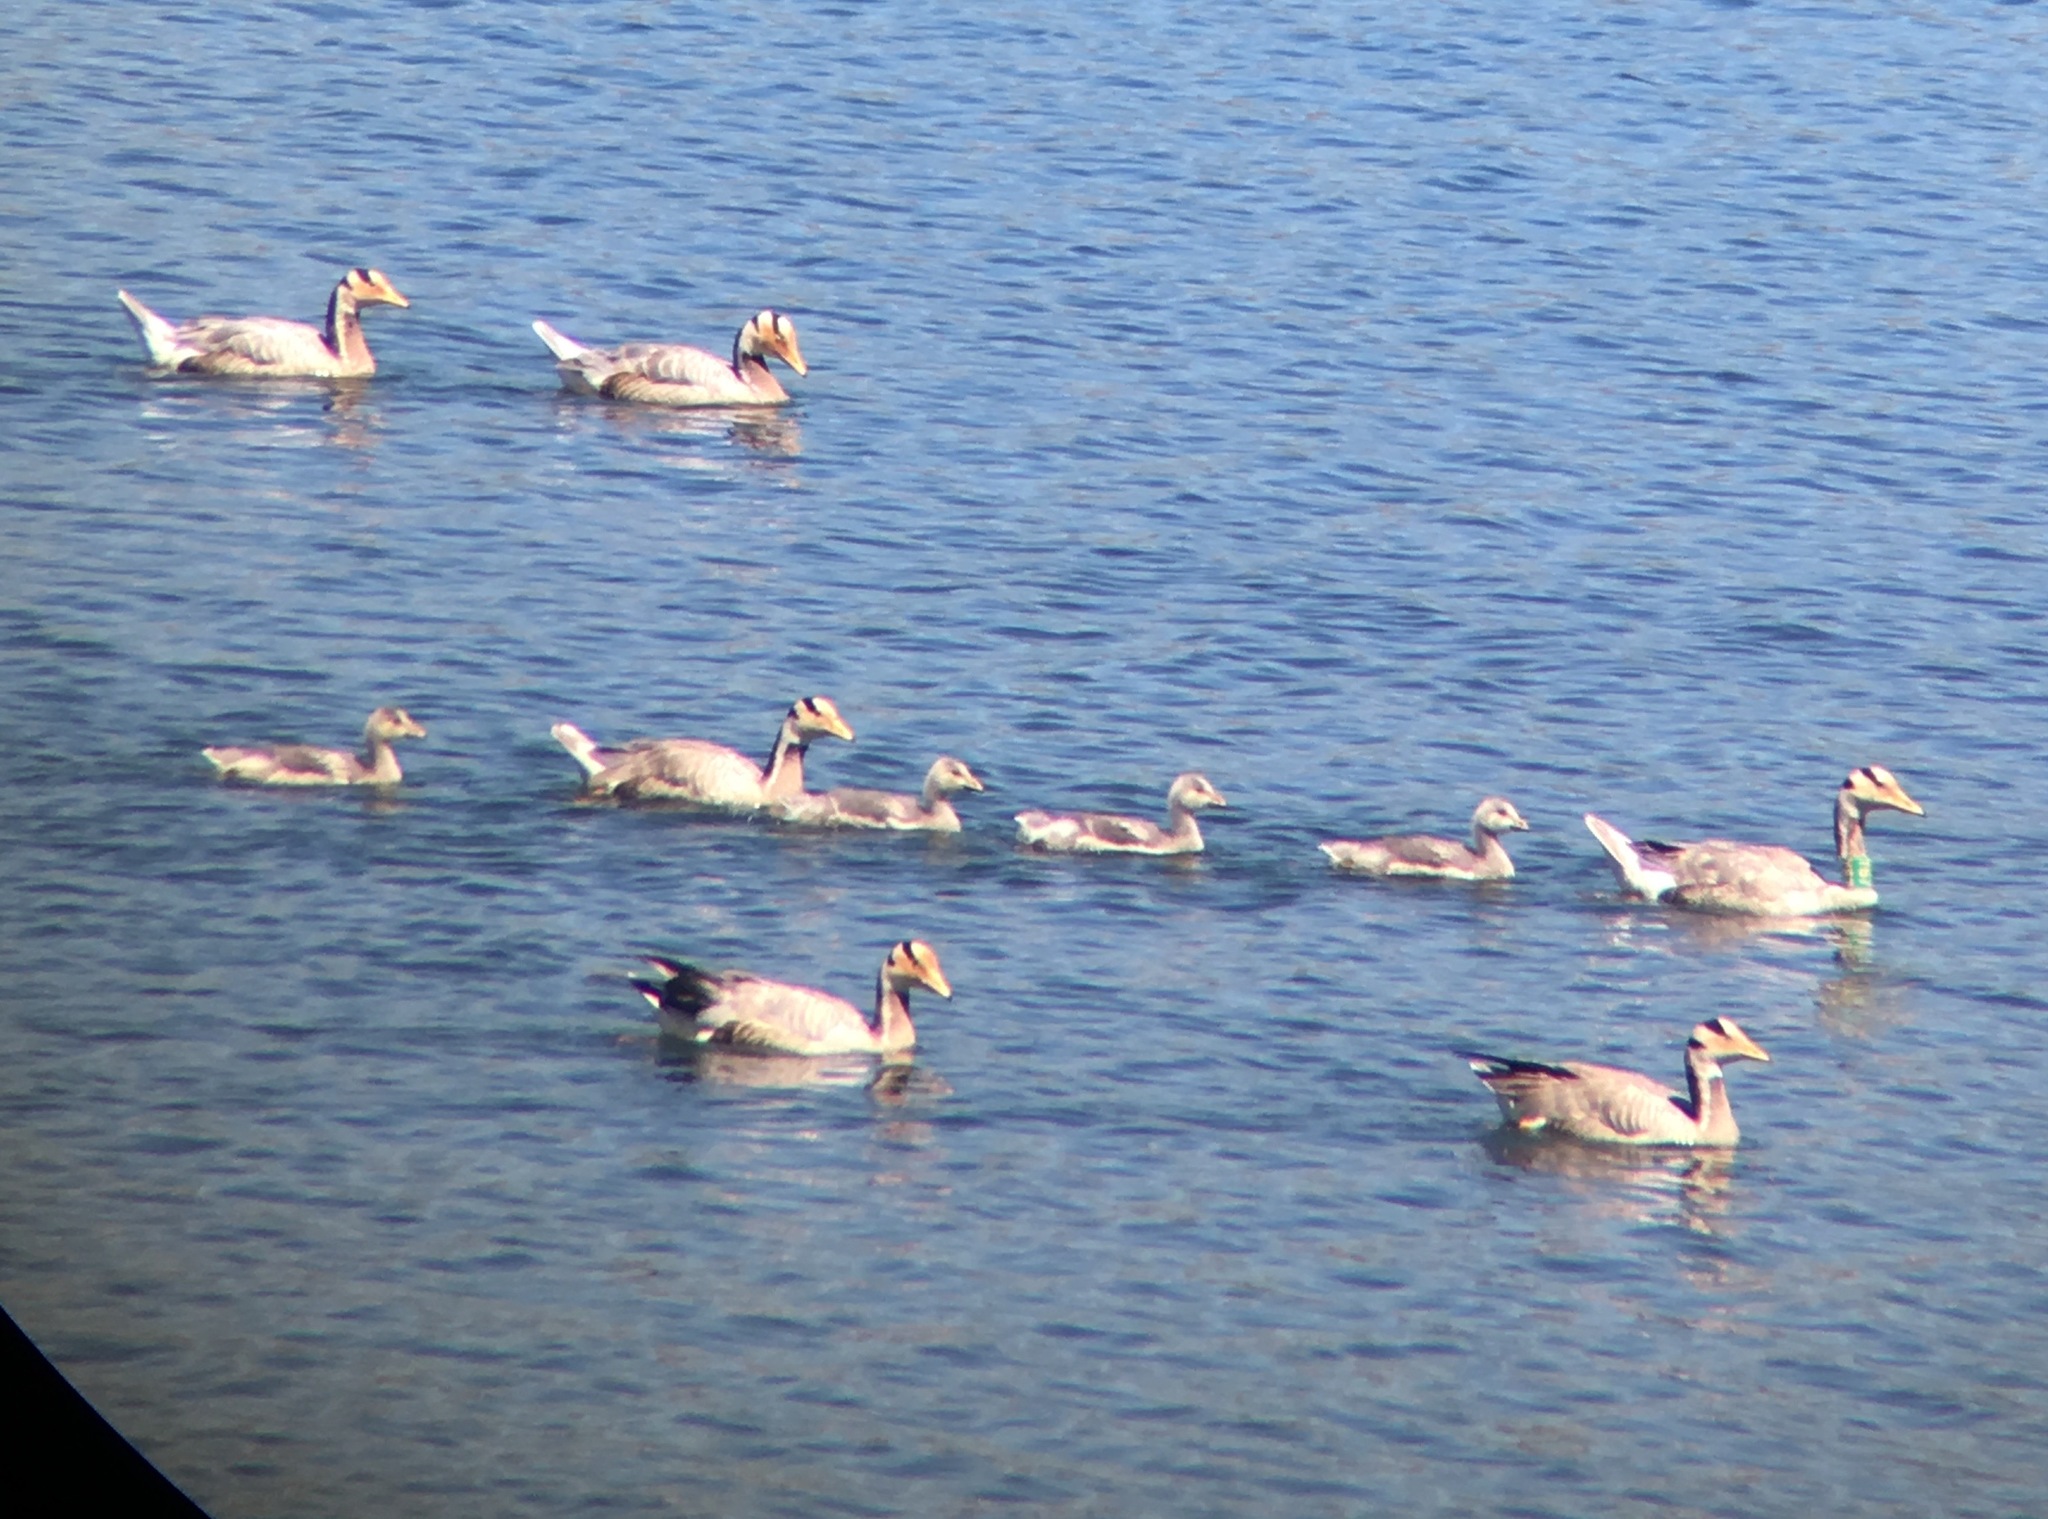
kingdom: Animalia
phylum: Chordata
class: Aves
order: Anseriformes
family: Anatidae
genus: Anser
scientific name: Anser indicus
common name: Bar-headed goose
